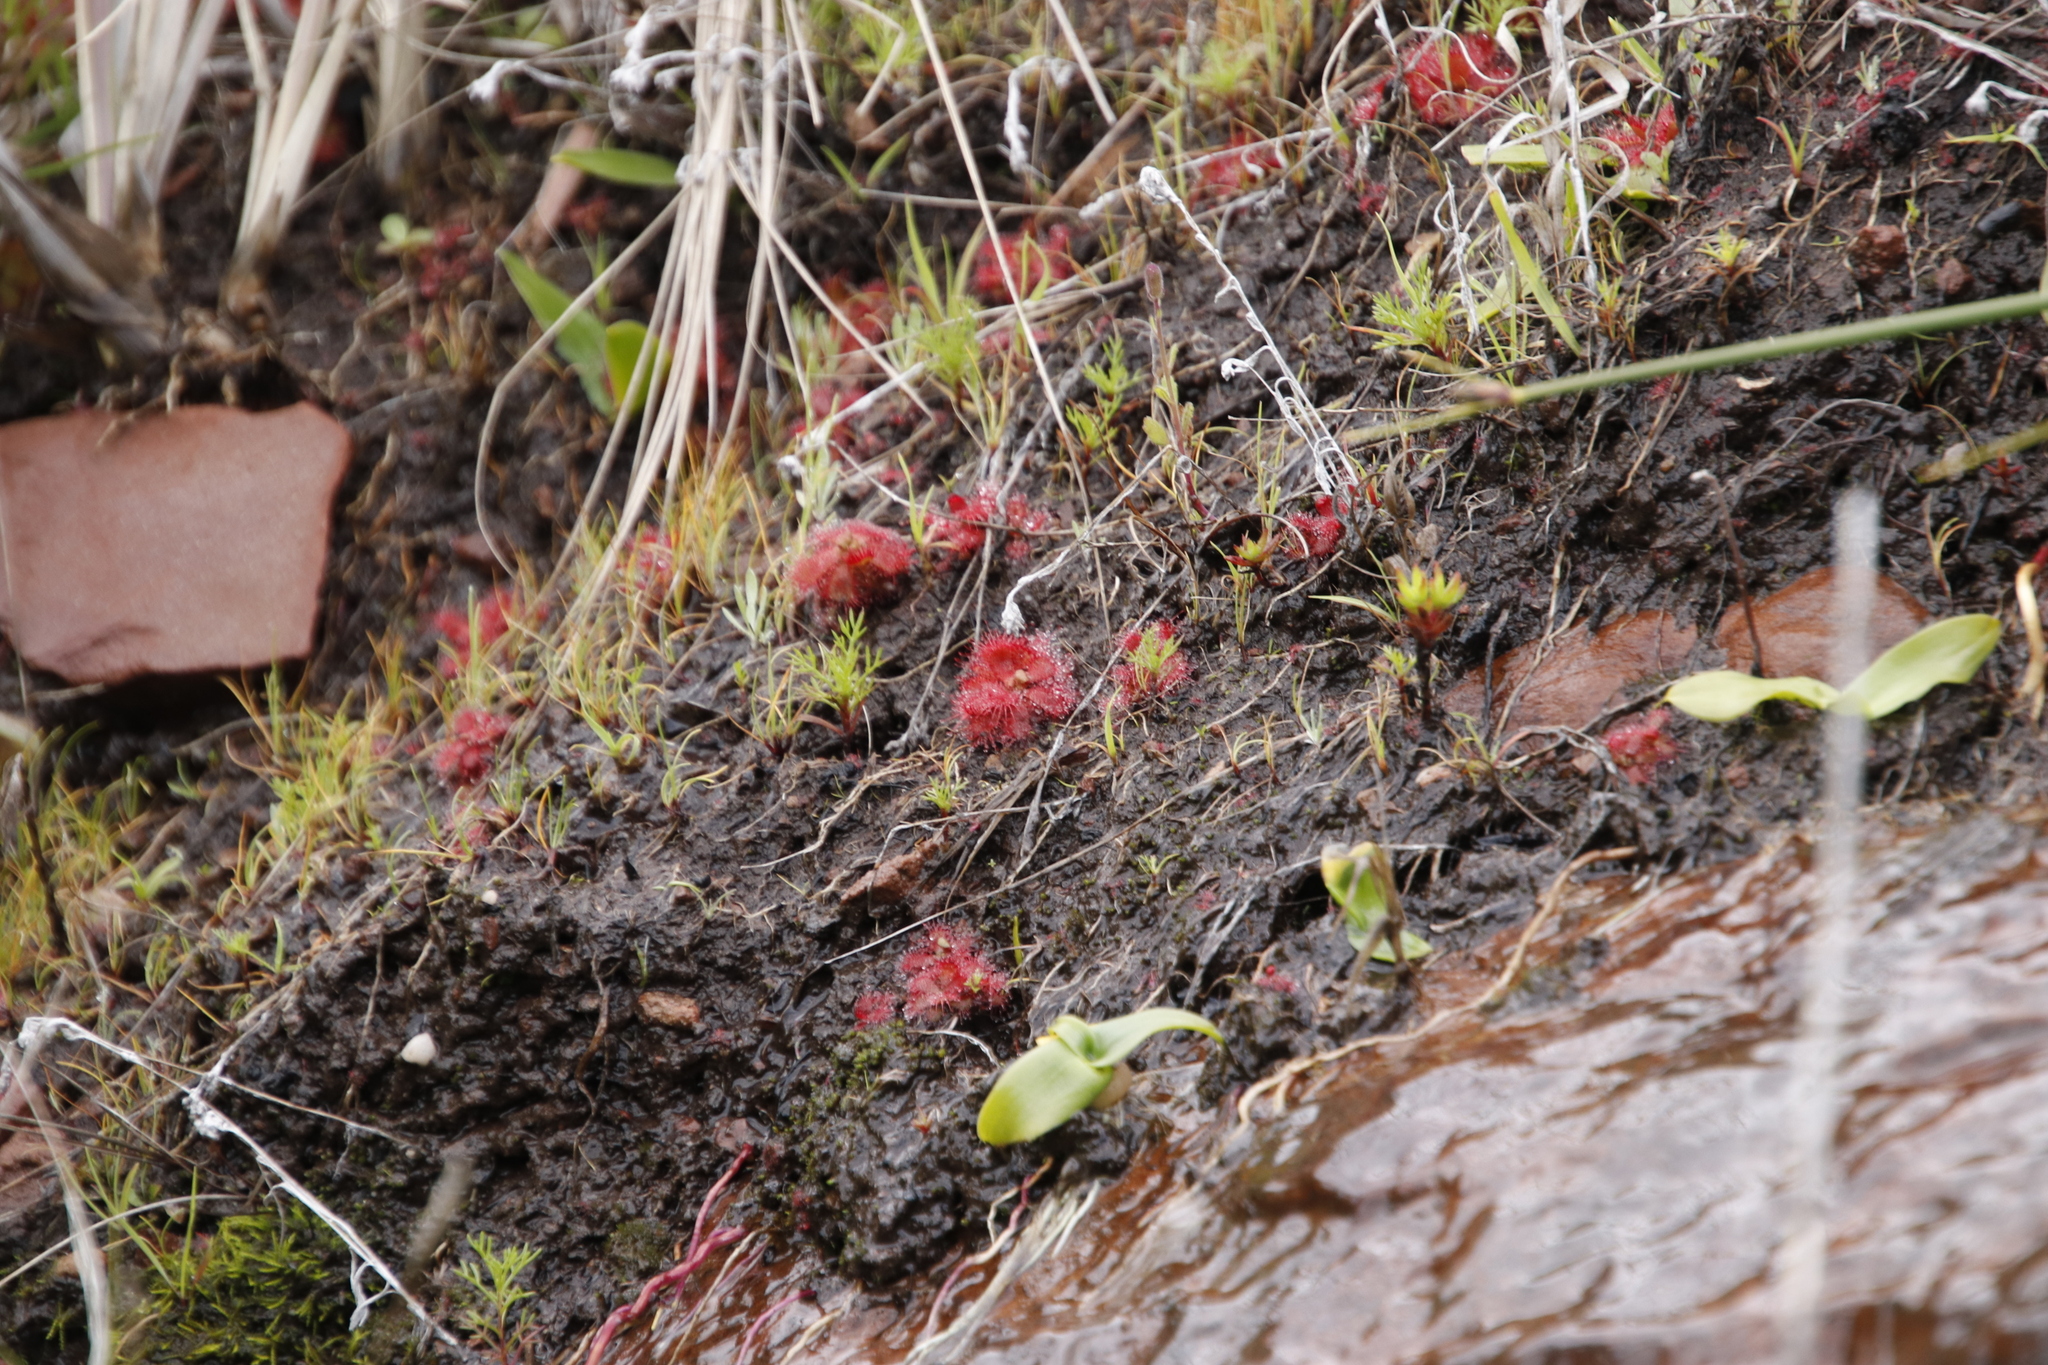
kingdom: Plantae
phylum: Tracheophyta
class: Magnoliopsida
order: Caryophyllales
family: Droseraceae
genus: Drosera
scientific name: Drosera trinervia
